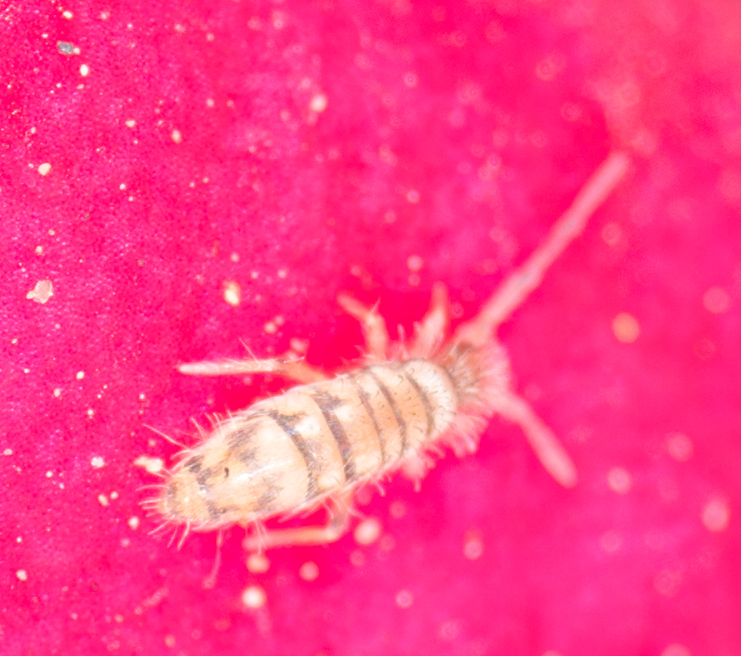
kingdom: Animalia
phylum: Arthropoda
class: Collembola
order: Entomobryomorpha
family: Entomobryidae
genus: Entomobrya
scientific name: Entomobrya atrocincta
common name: Springtail
